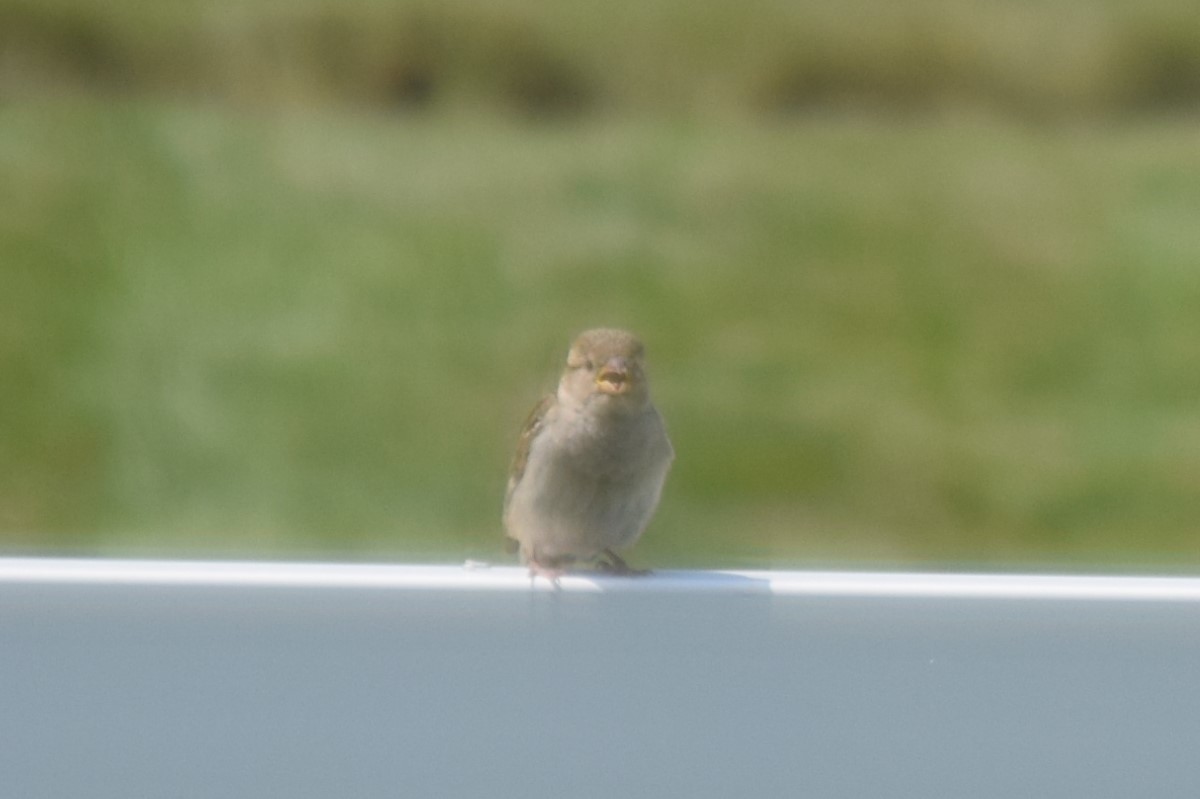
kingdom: Animalia
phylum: Chordata
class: Aves
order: Passeriformes
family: Passeridae
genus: Passer
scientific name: Passer domesticus
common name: House sparrow
